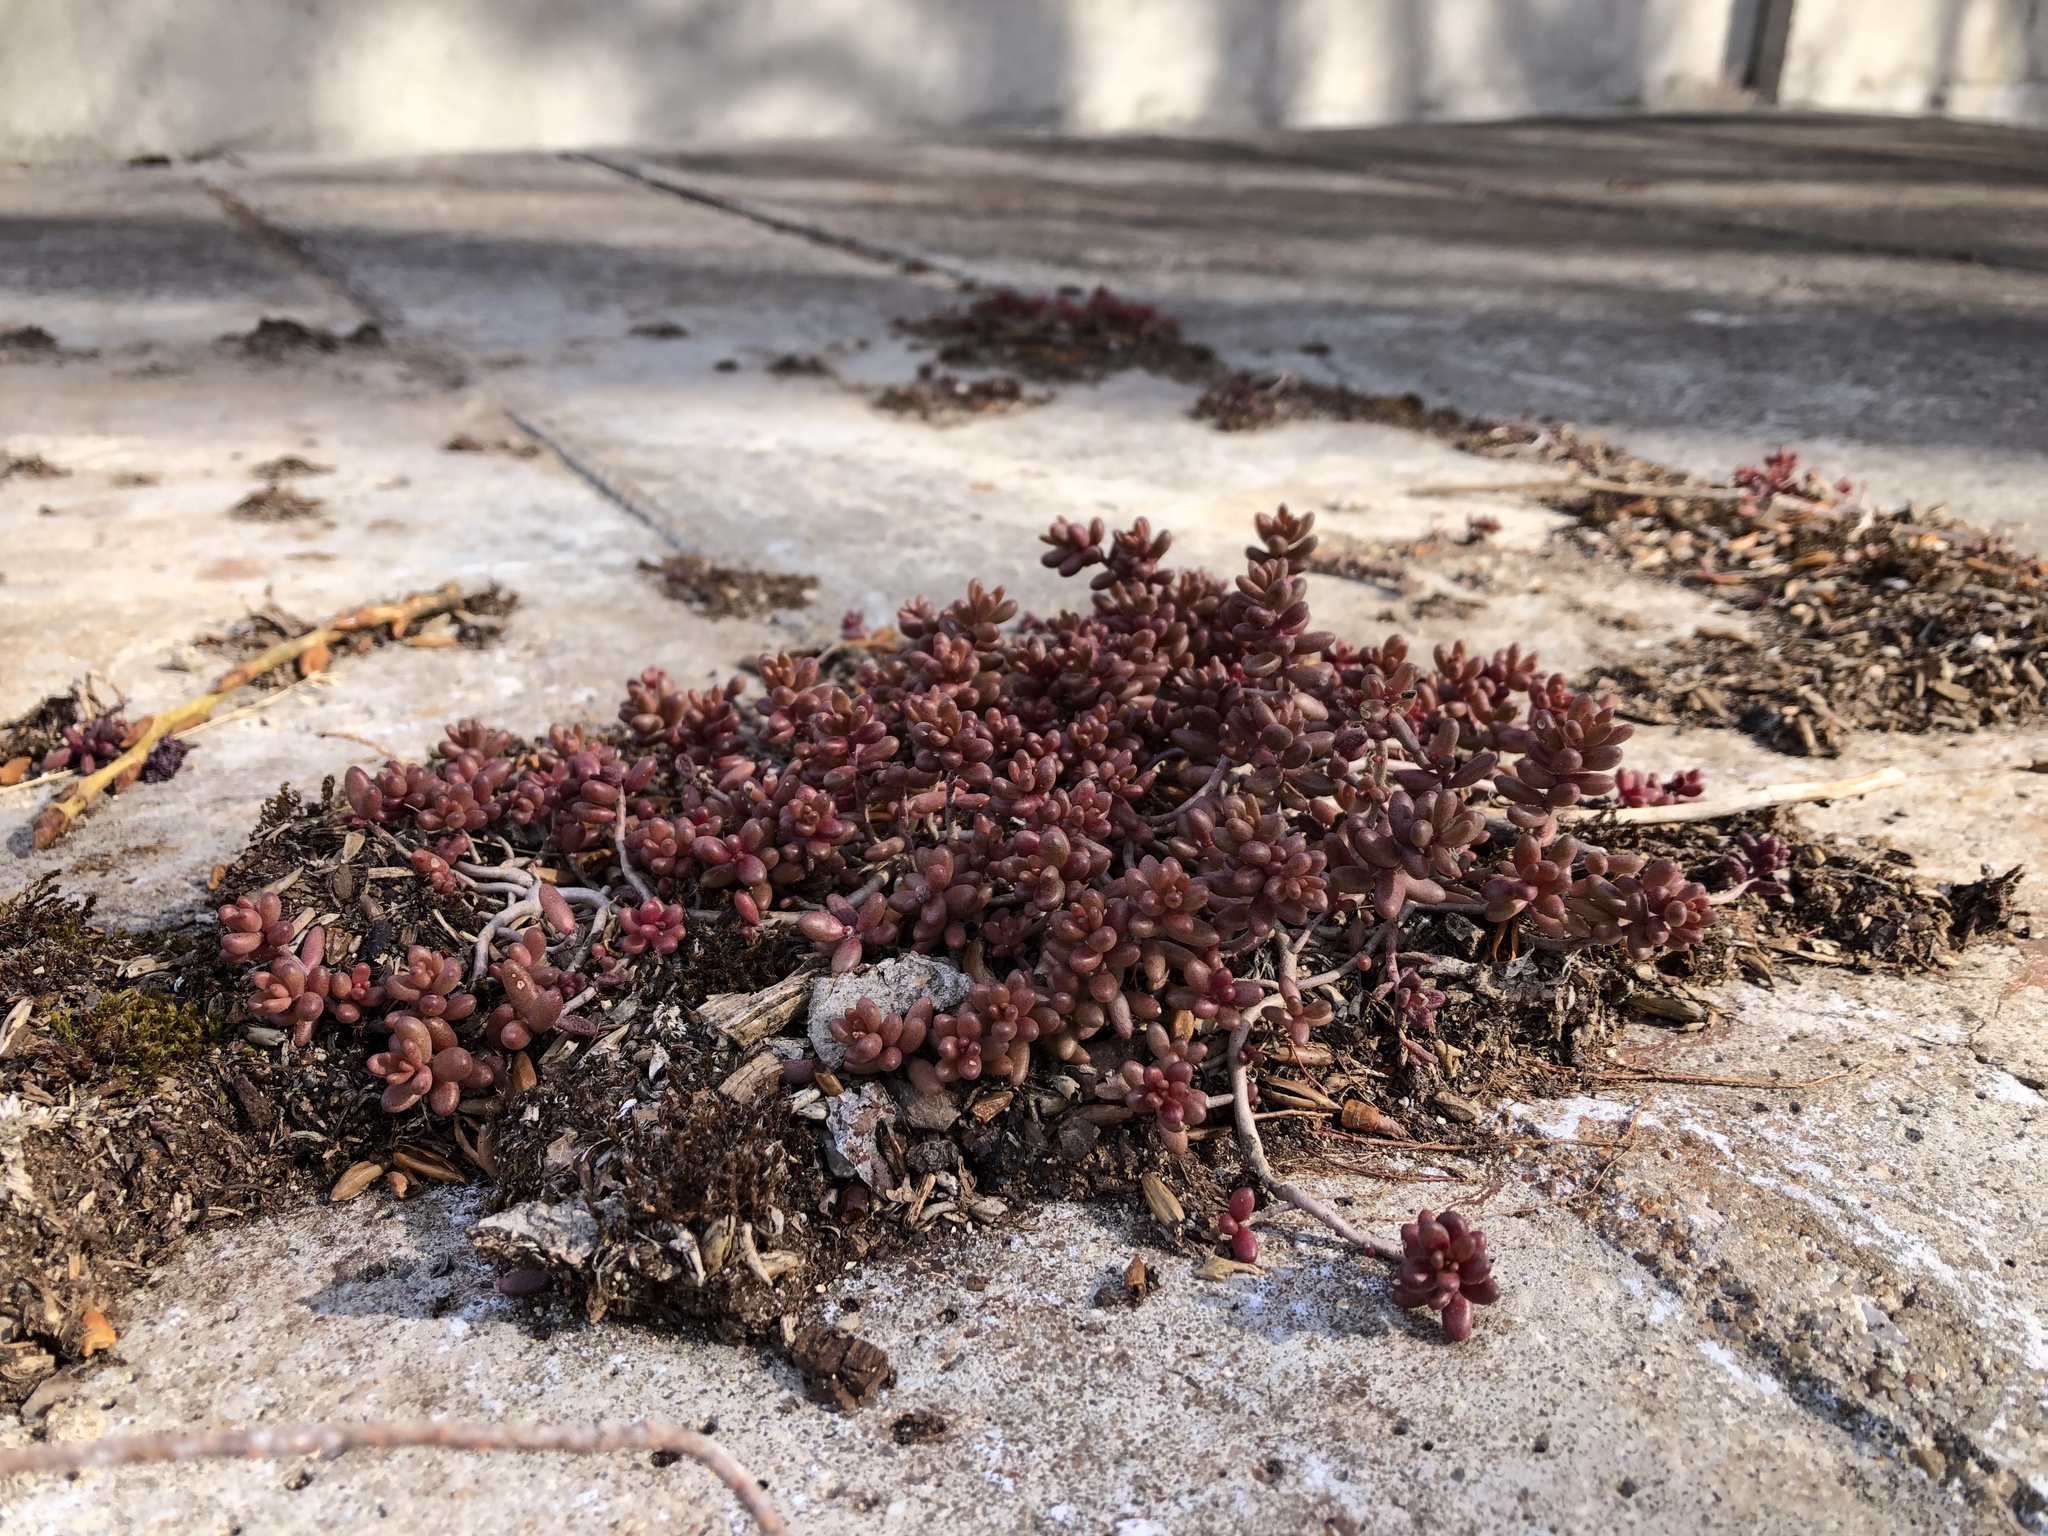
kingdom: Plantae
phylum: Tracheophyta
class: Magnoliopsida
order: Saxifragales
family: Crassulaceae
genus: Sedum
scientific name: Sedum album
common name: White stonecrop
